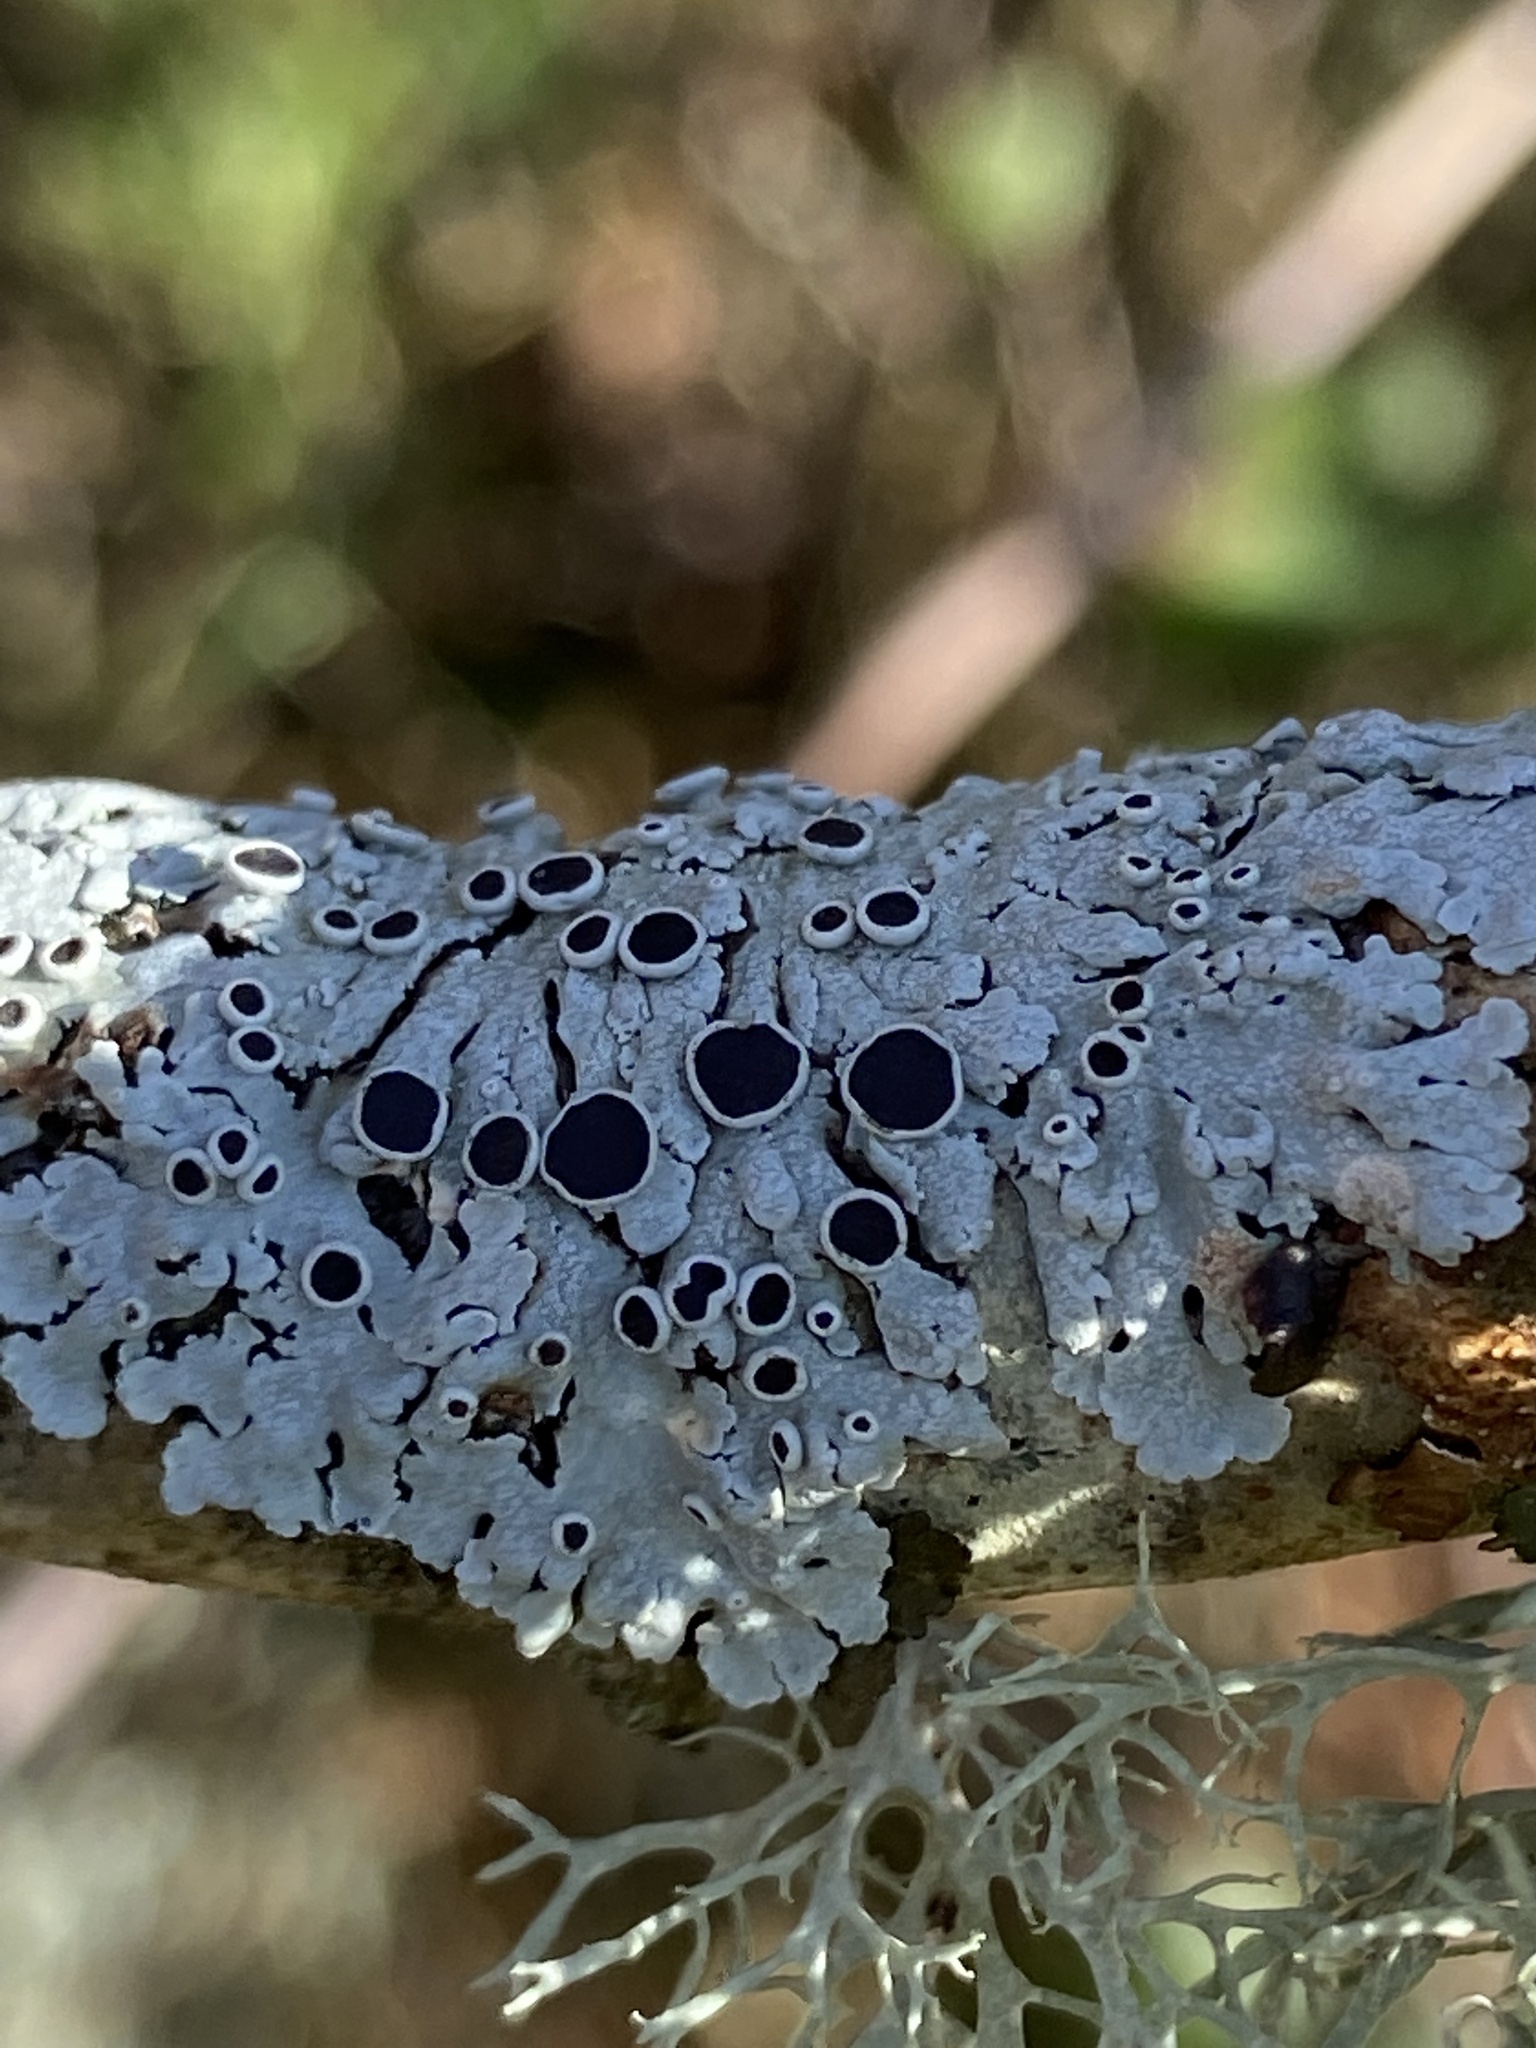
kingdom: Fungi
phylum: Ascomycota
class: Lecanoromycetes
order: Caliciales
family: Physciaceae
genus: Physcia
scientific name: Physcia aipolia
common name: Hoary rosette lichen
